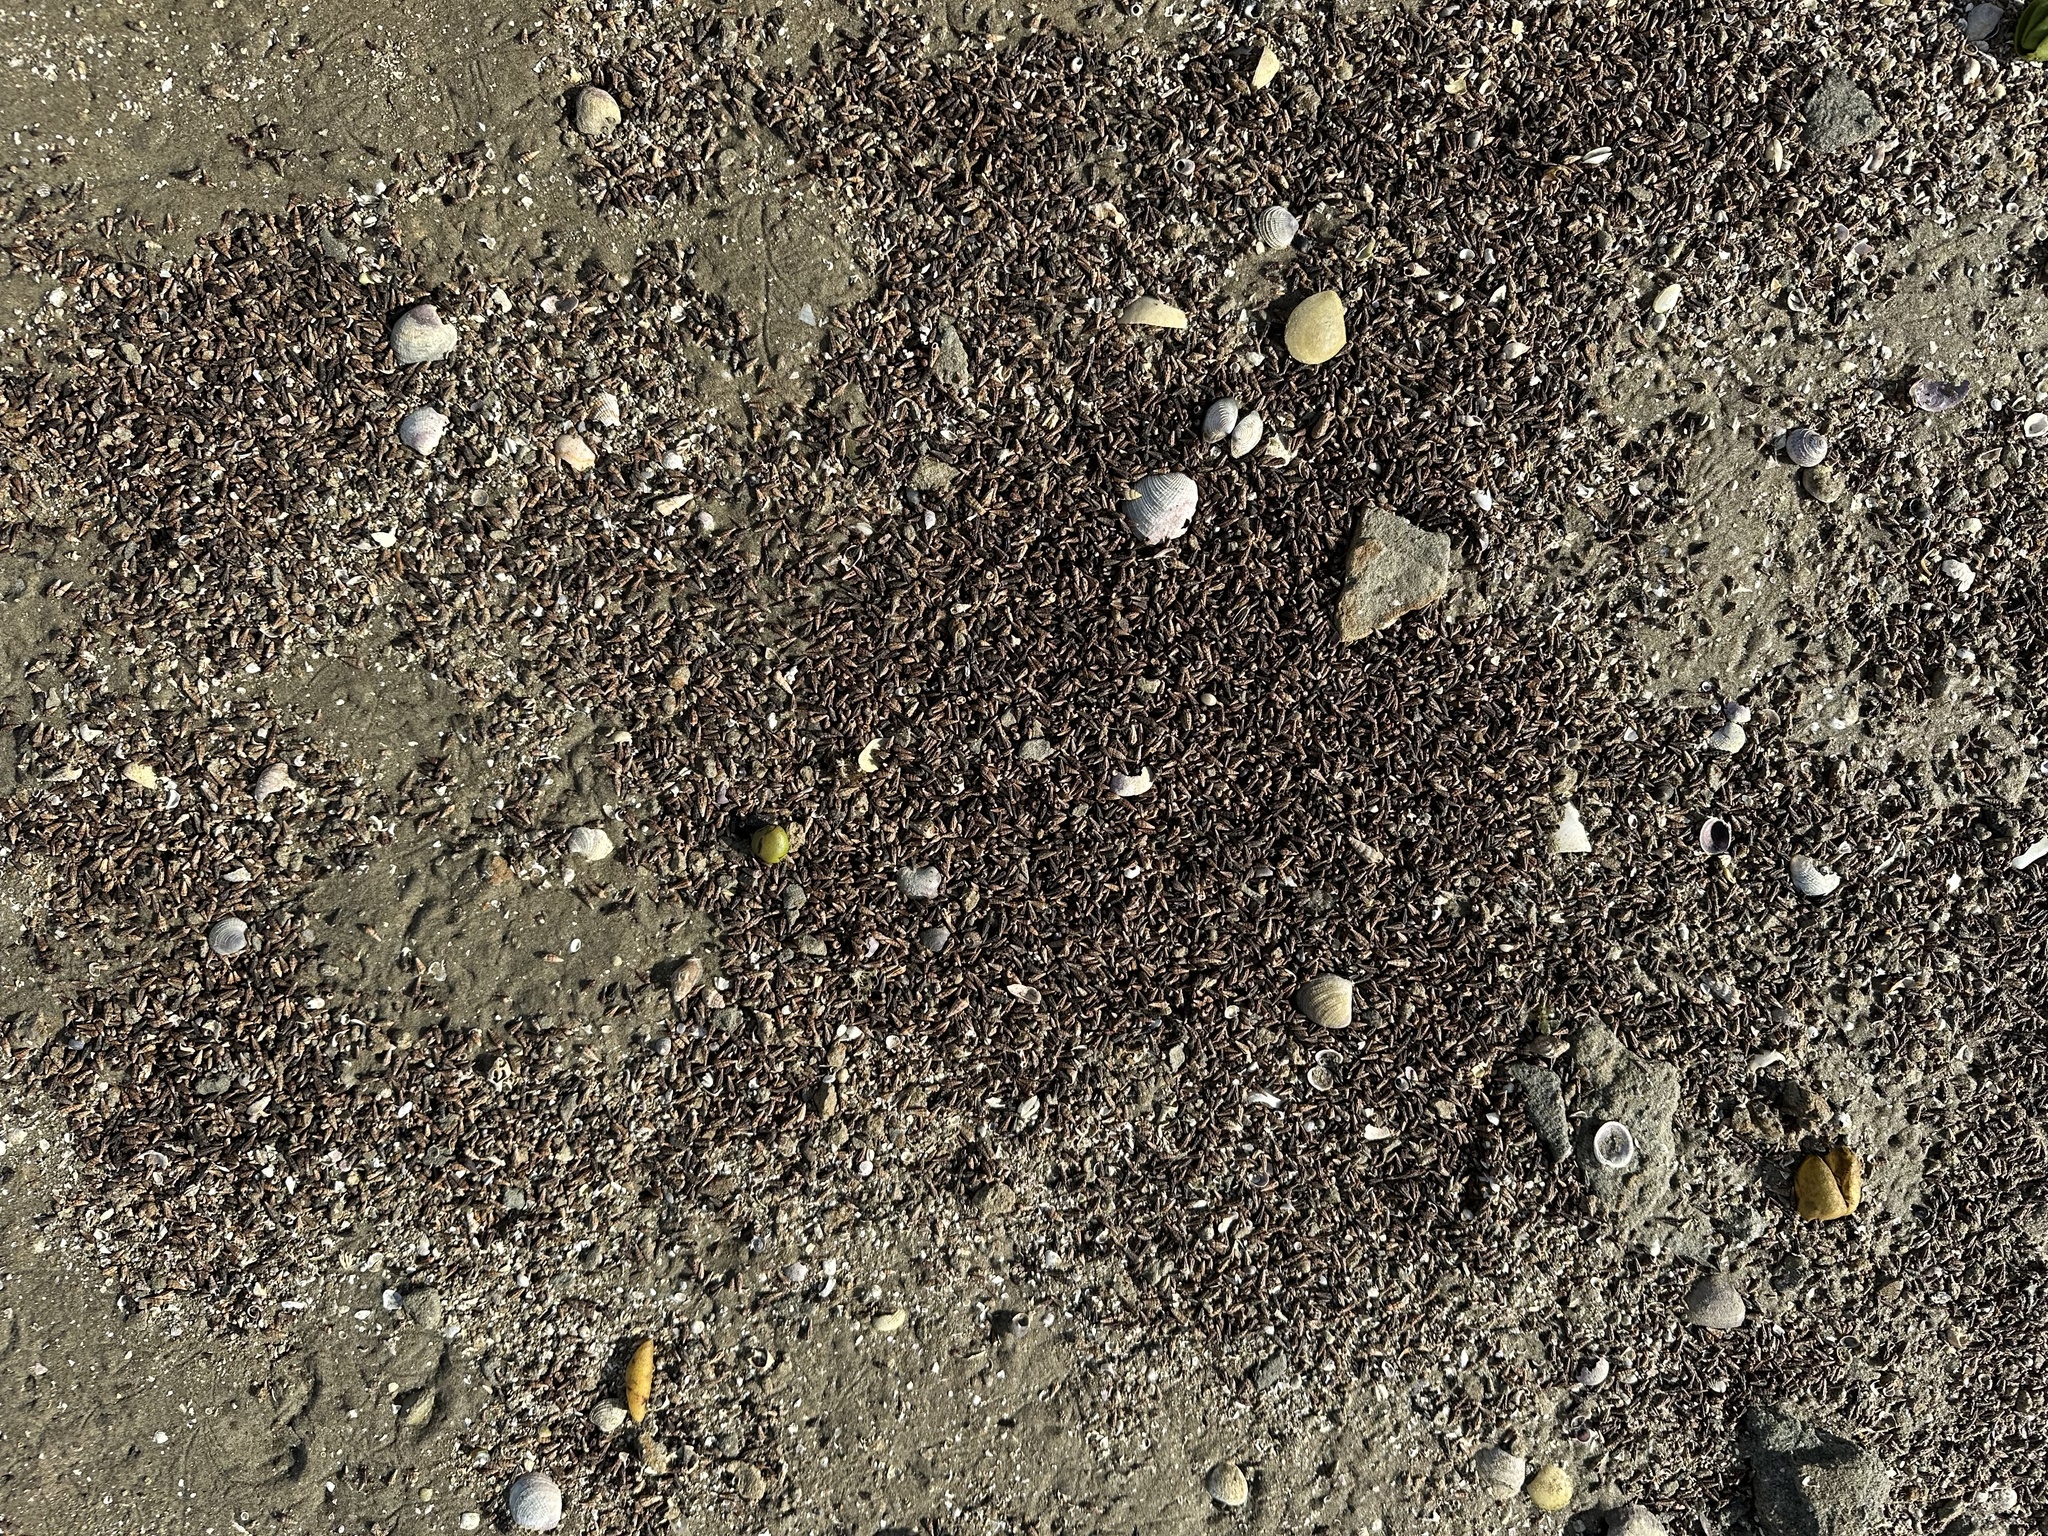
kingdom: Animalia
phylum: Mollusca
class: Gastropoda
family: Batillariidae
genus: Zeacumantus
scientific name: Zeacumantus subcarinatus
